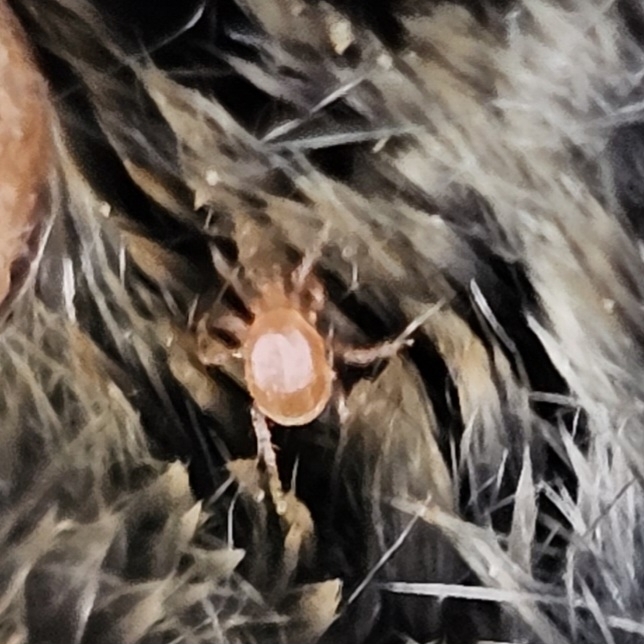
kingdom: Animalia
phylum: Chordata
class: Mammalia
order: Soricomorpha
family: Soricidae
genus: Blarina
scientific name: Blarina brevicauda
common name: Northern short-tailed shrew
